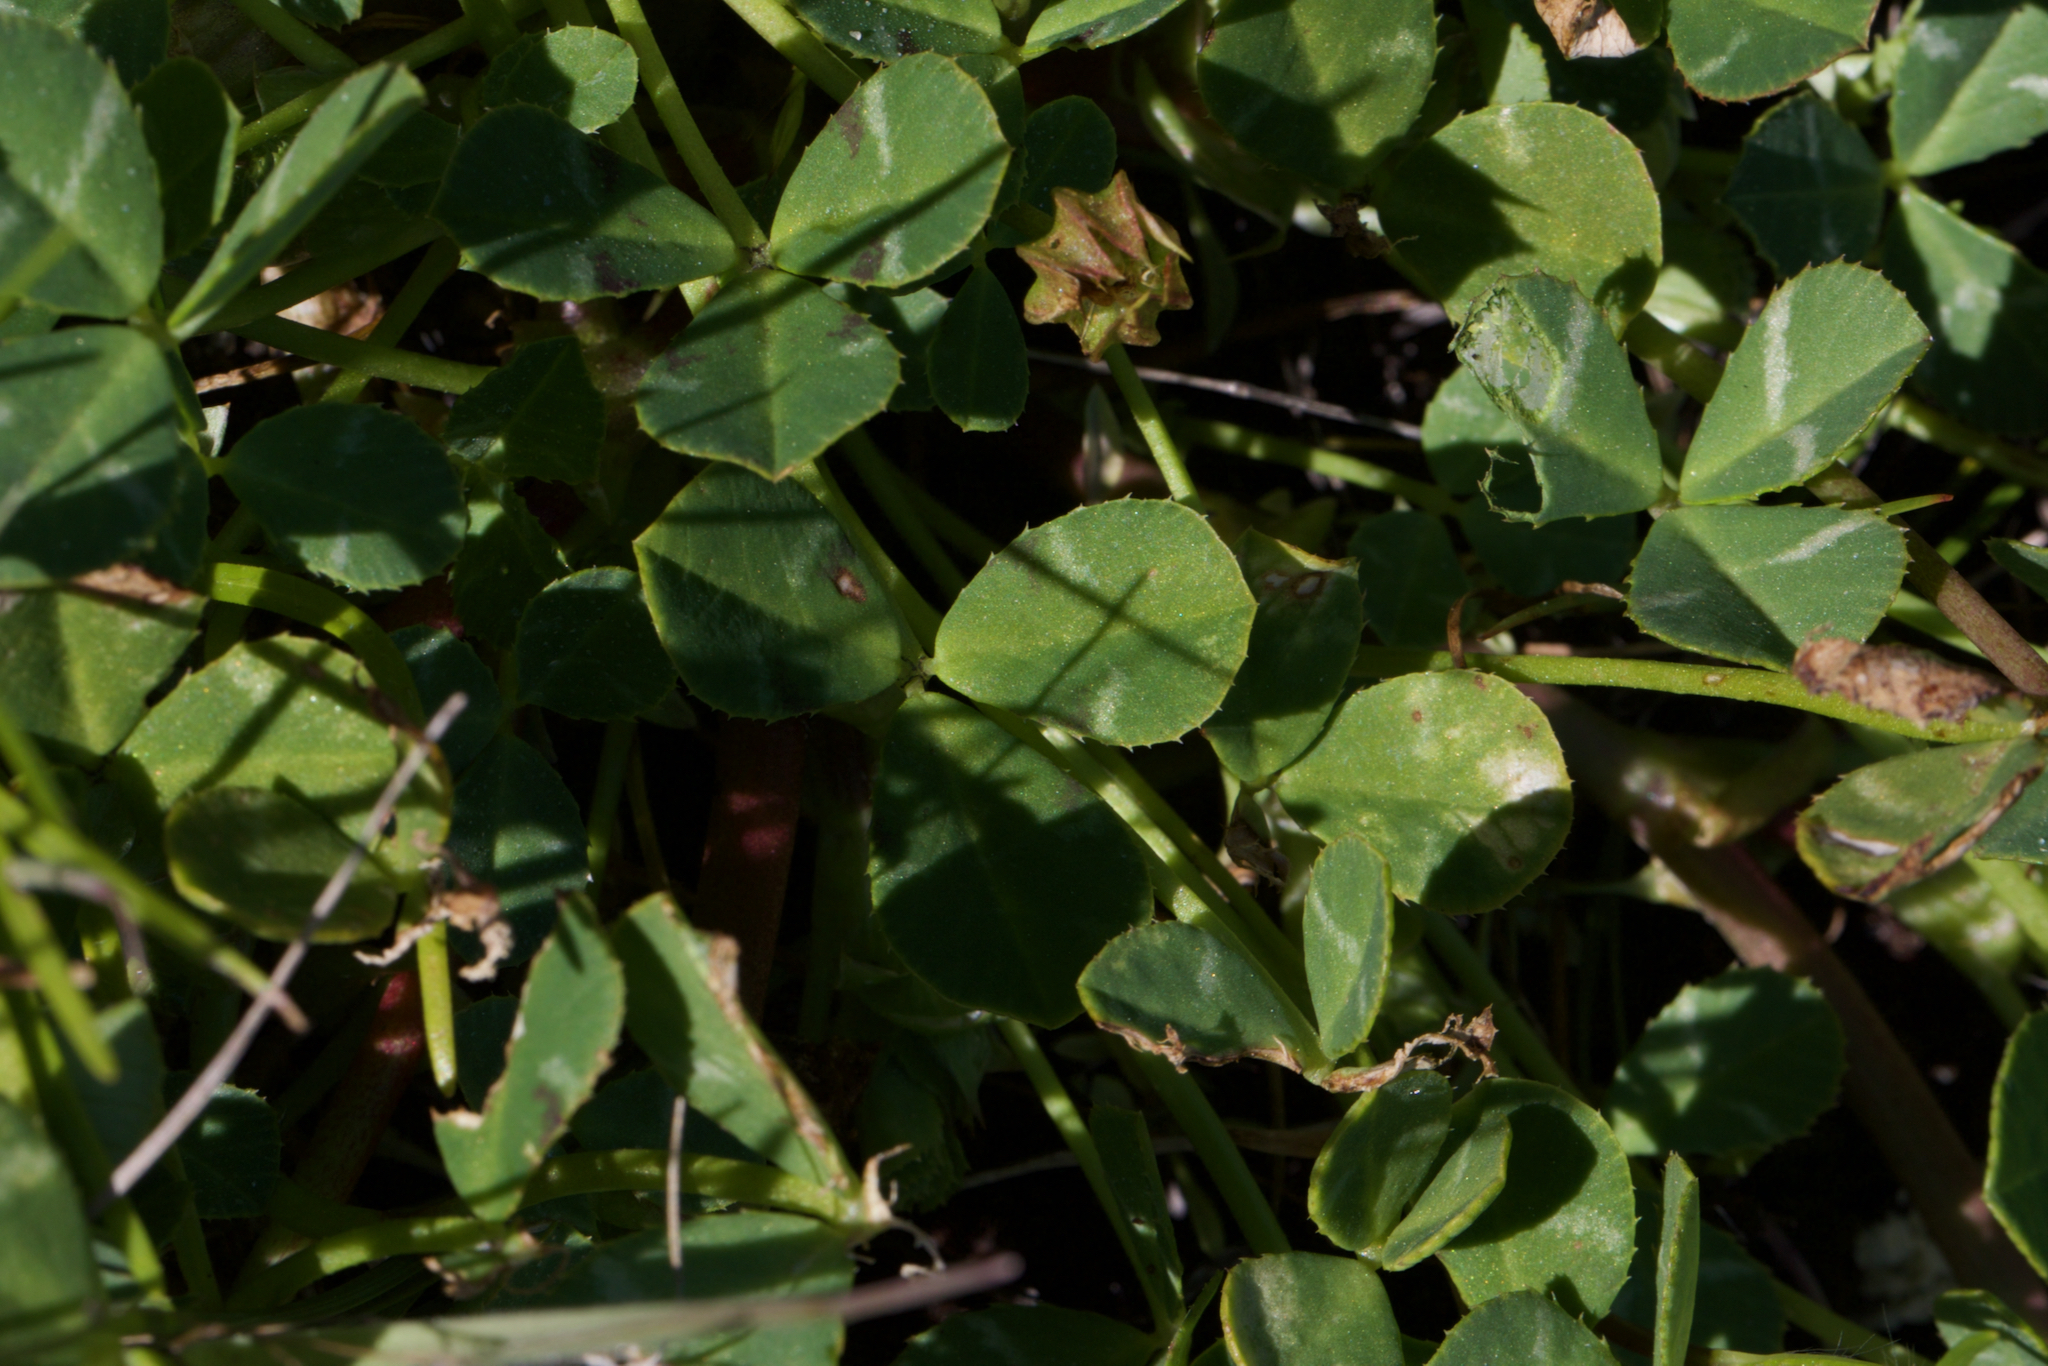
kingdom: Plantae
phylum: Tracheophyta
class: Magnoliopsida
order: Fabales
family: Fabaceae
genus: Trifolium
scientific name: Trifolium fucatum
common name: Puff clover
